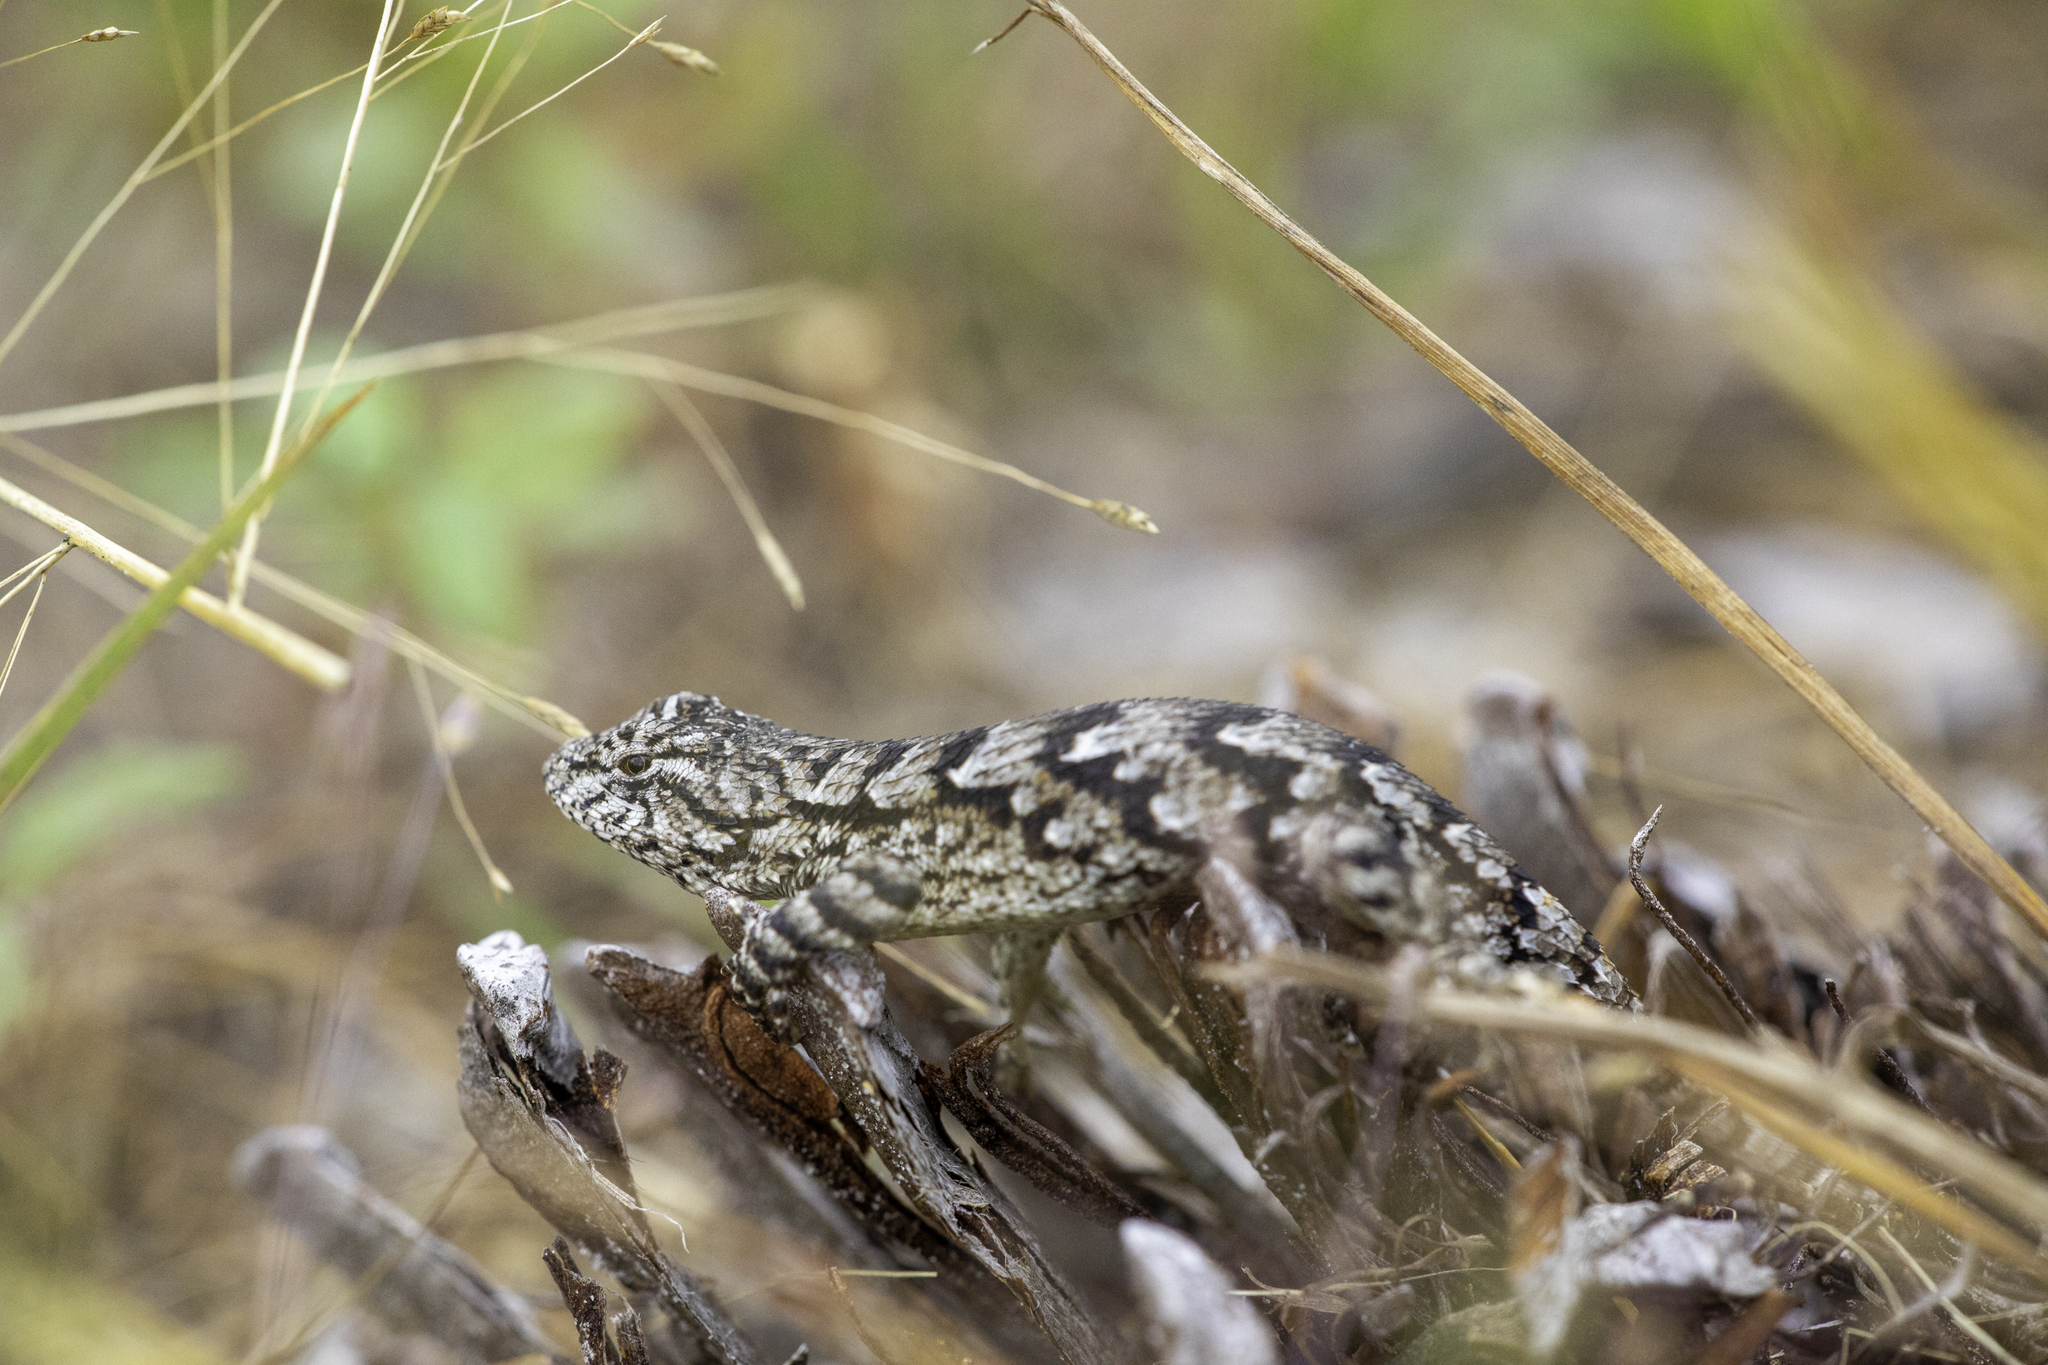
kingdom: Animalia
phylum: Chordata
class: Squamata
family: Phrynosomatidae
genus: Sceloporus
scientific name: Sceloporus undulatus
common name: Eastern fence lizard
